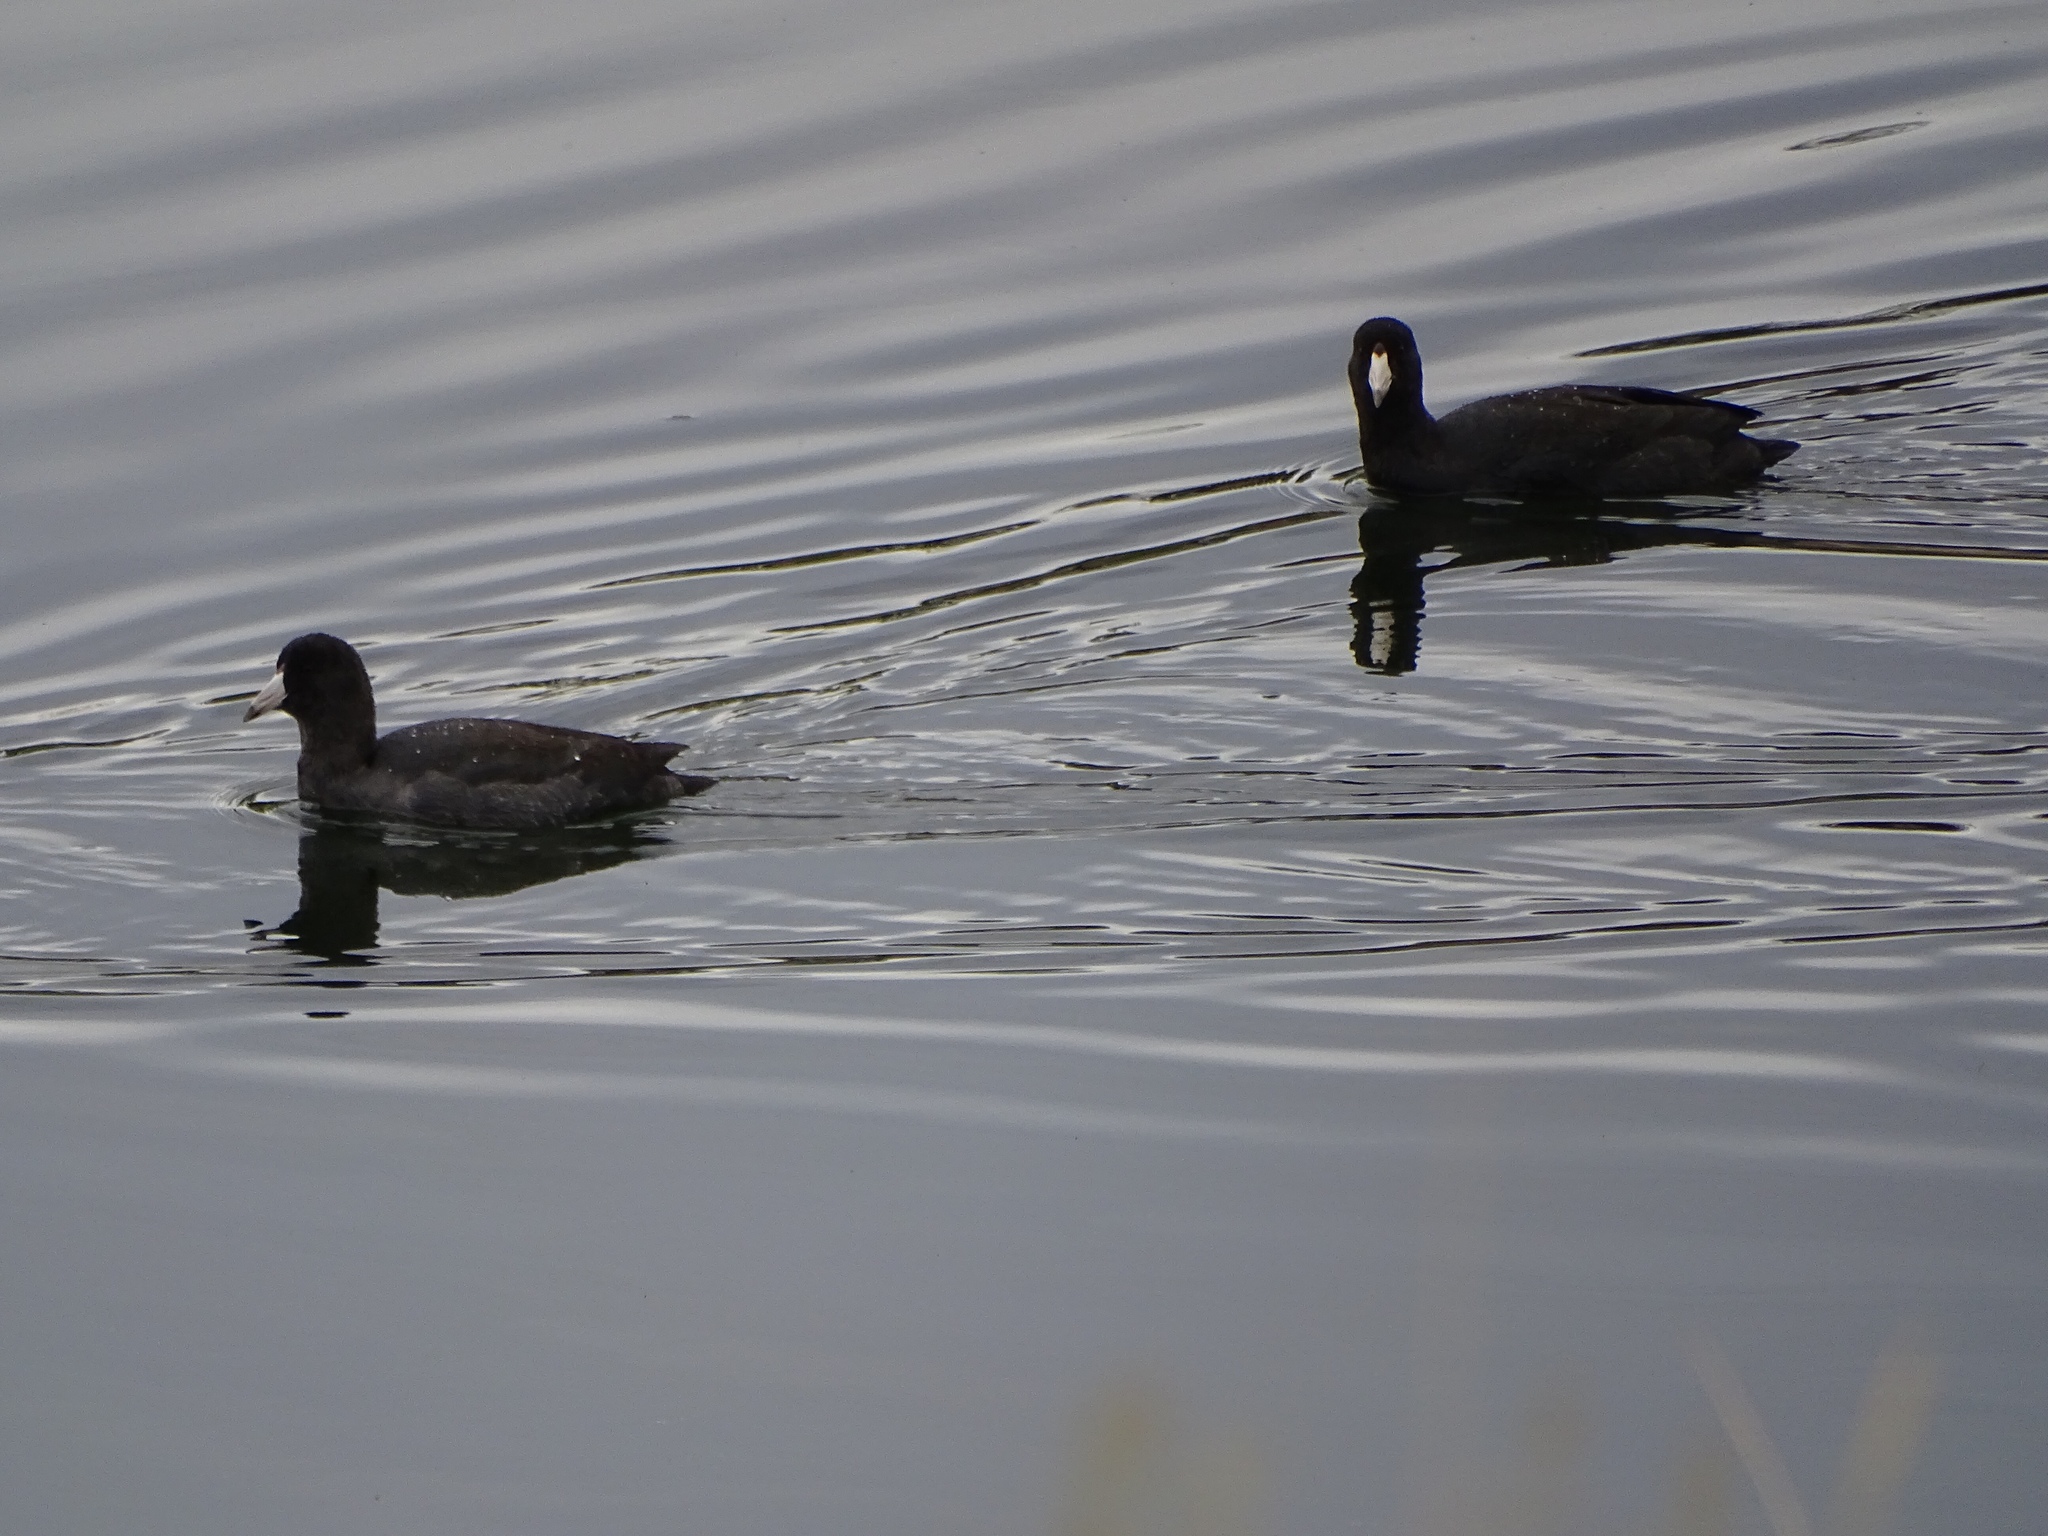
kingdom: Animalia
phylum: Chordata
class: Aves
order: Gruiformes
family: Rallidae
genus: Fulica
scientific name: Fulica americana
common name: American coot
